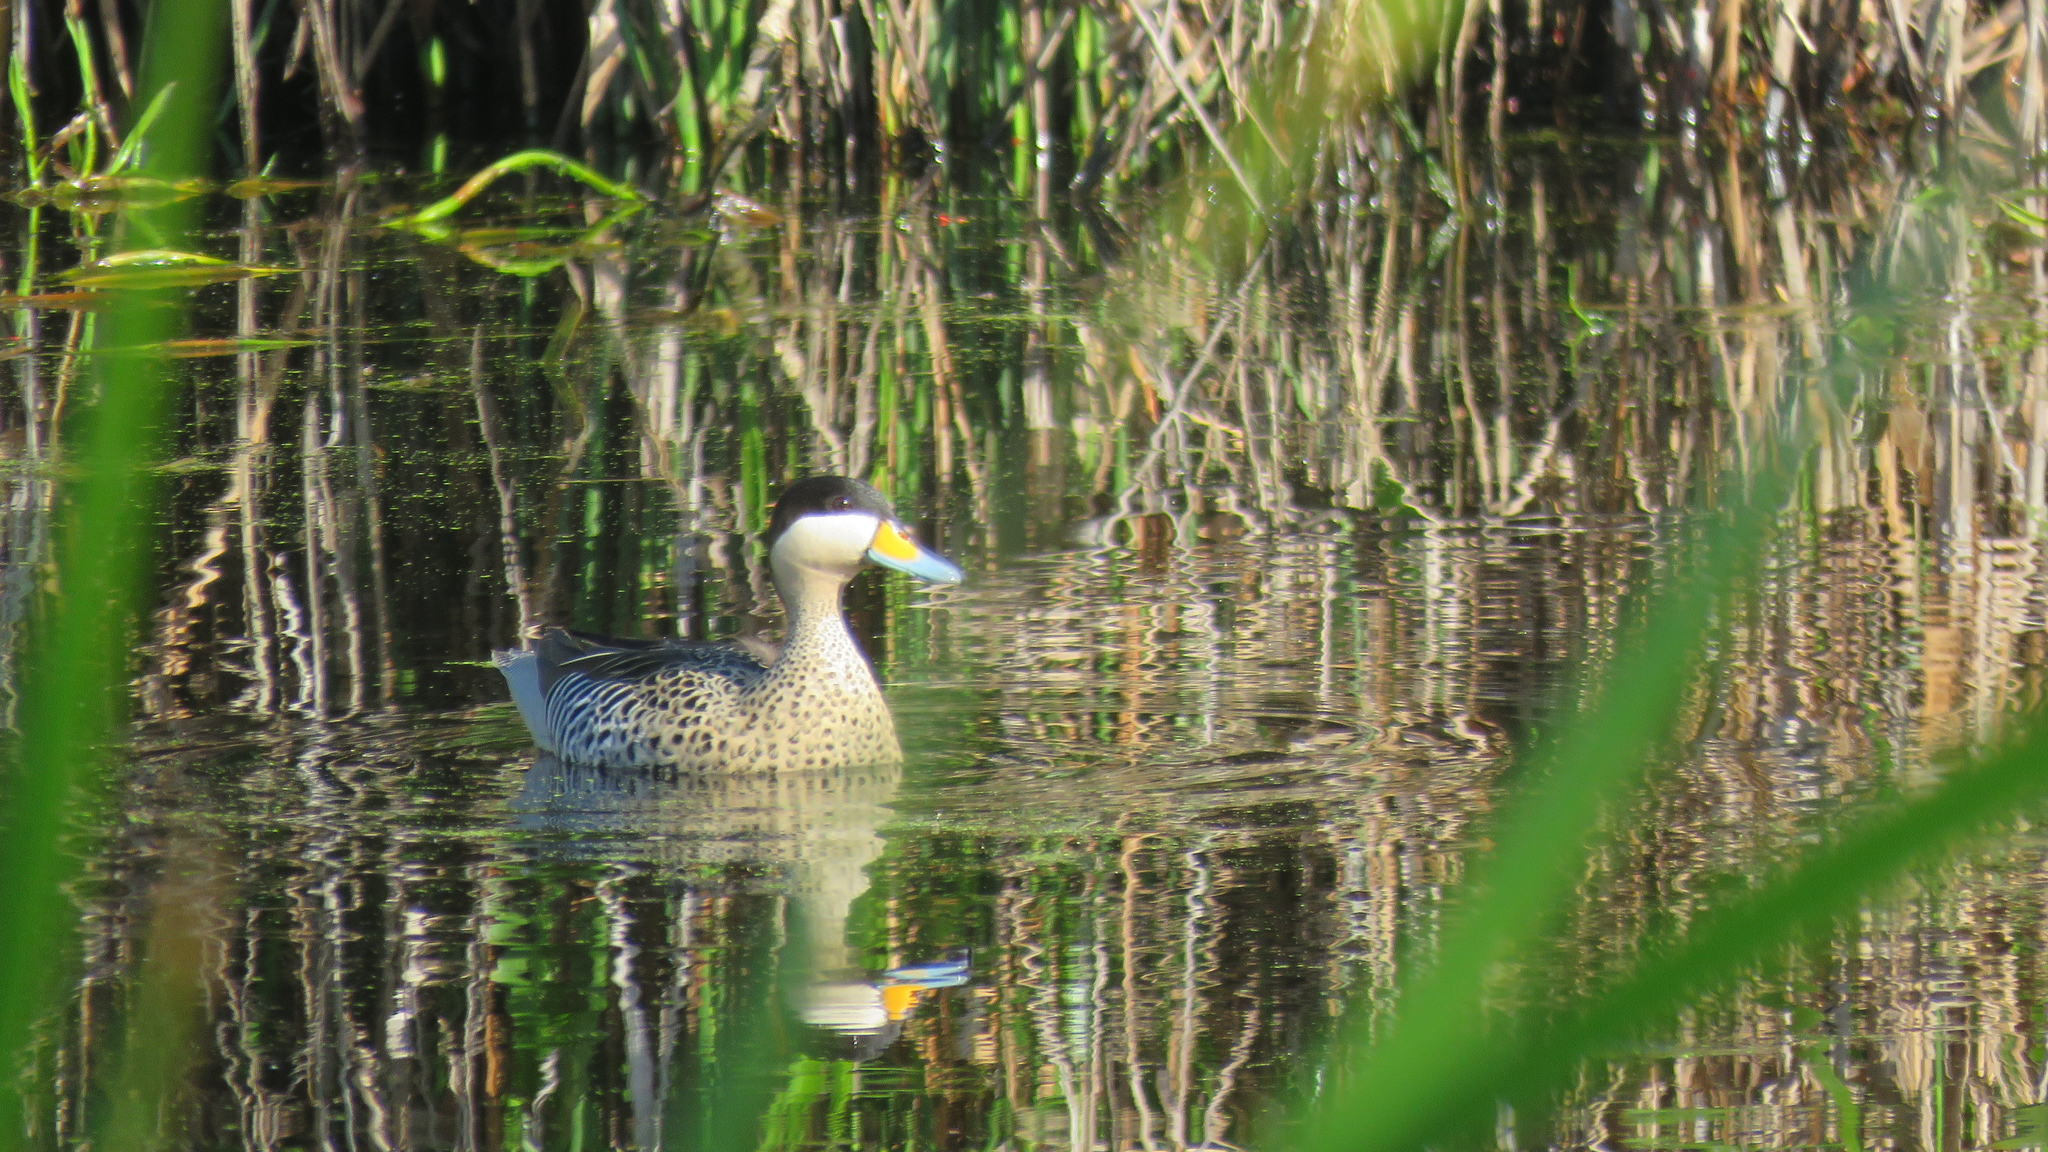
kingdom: Animalia
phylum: Chordata
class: Aves
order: Anseriformes
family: Anatidae
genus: Spatula
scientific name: Spatula versicolor
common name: Silver teal
